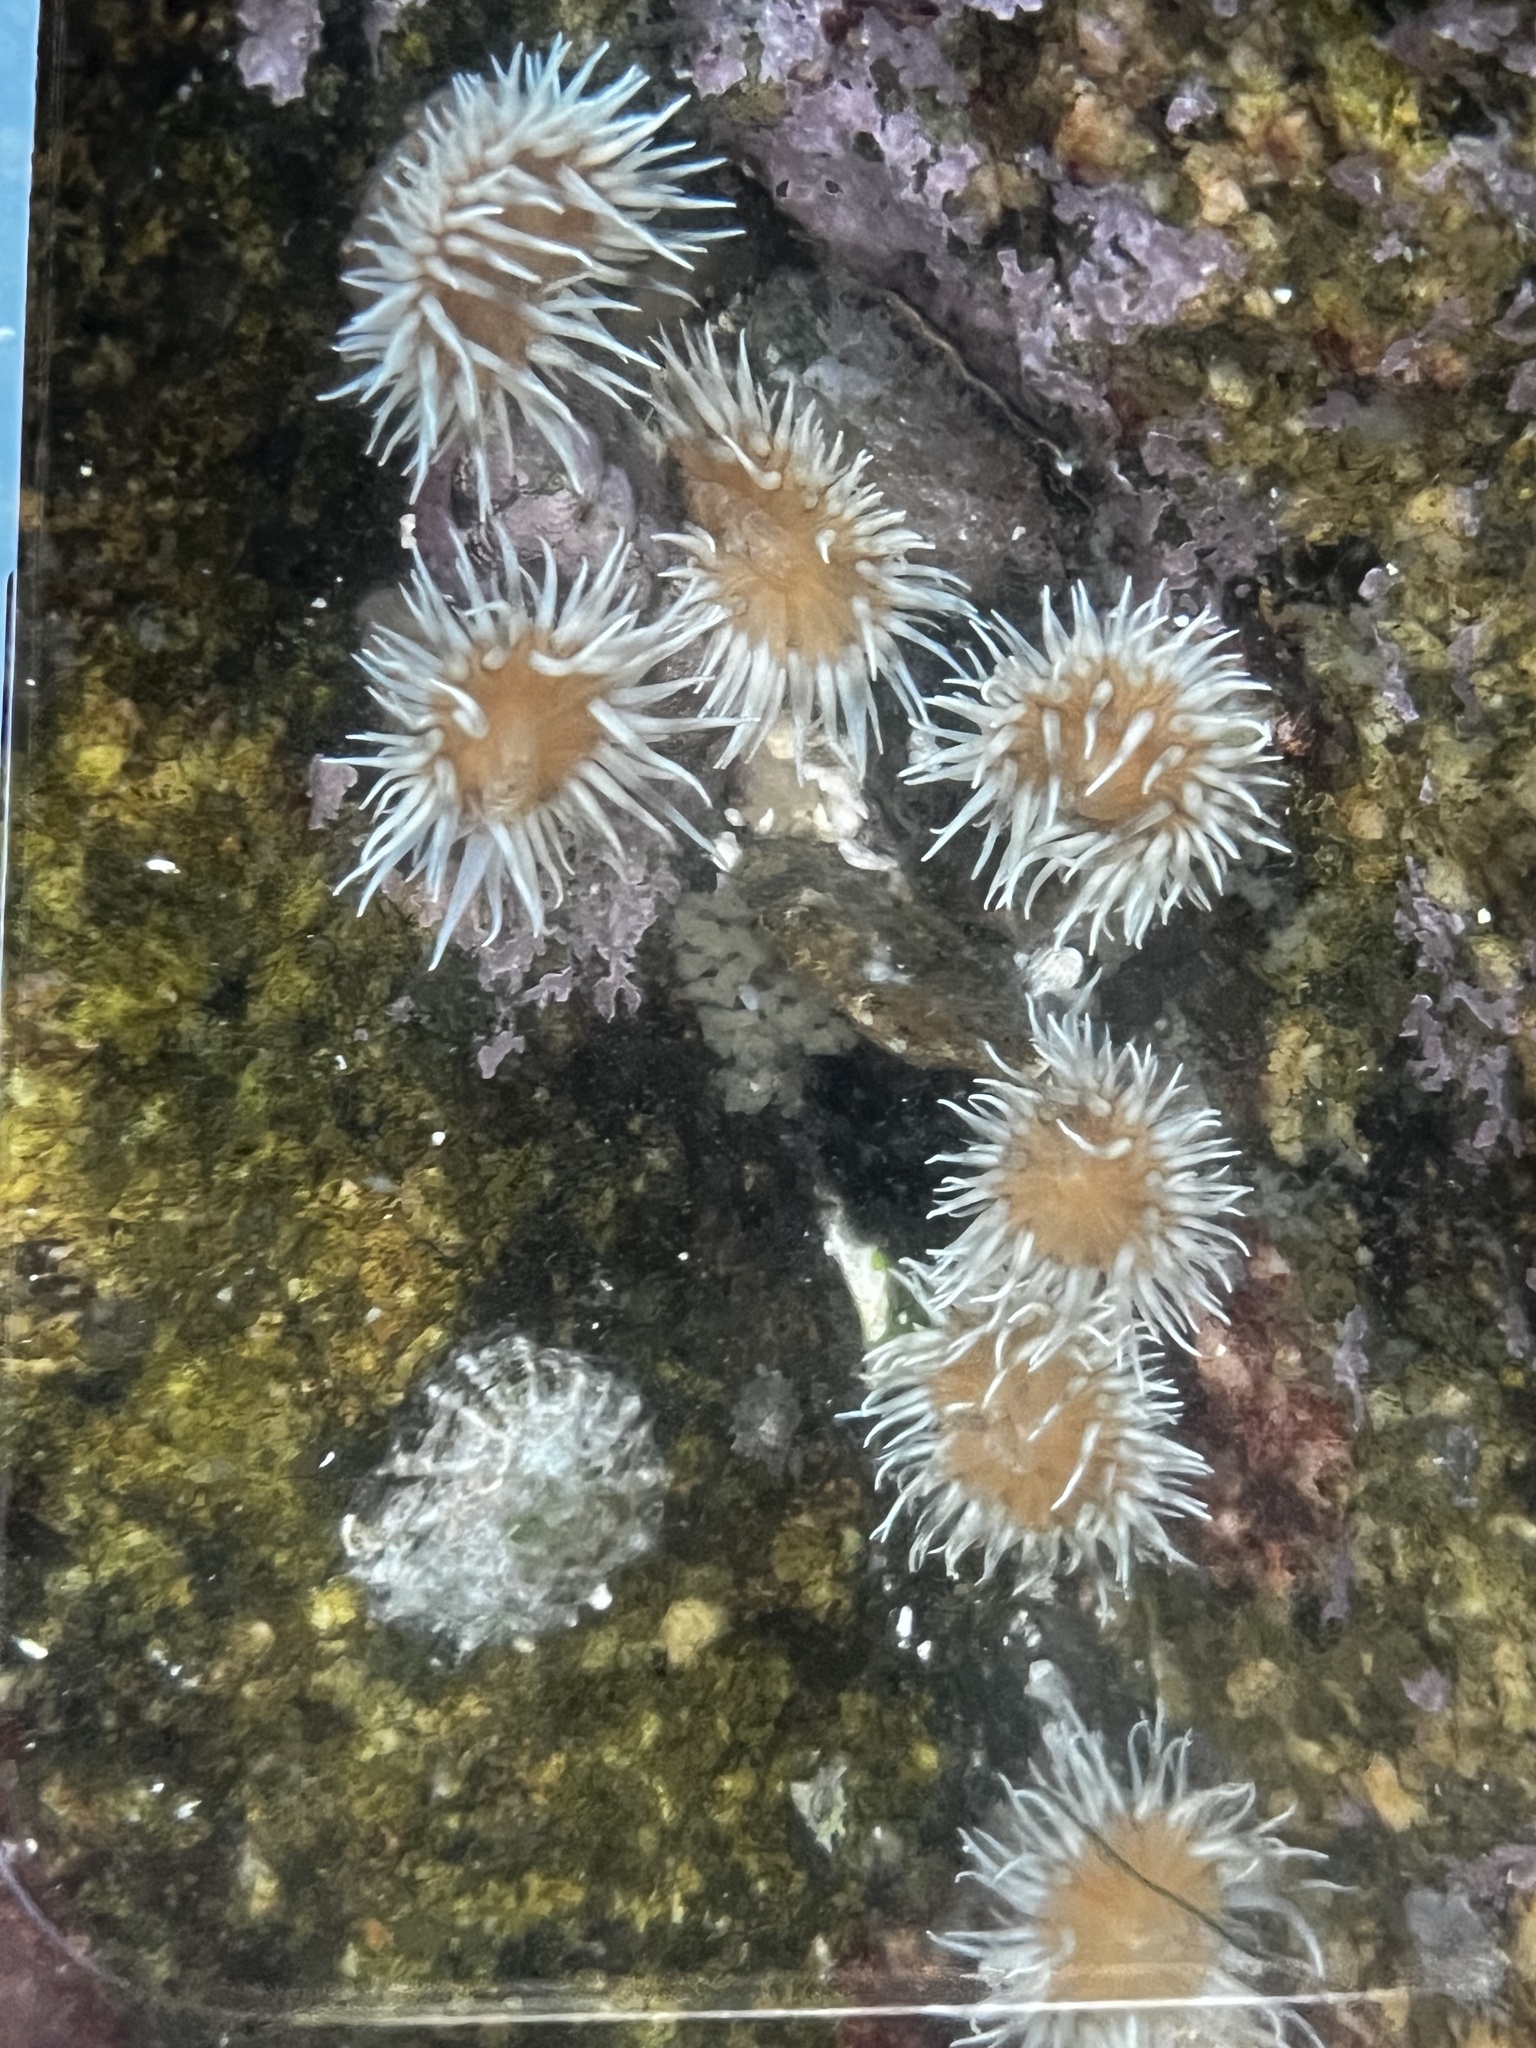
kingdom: Animalia
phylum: Cnidaria
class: Anthozoa
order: Actiniaria
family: Sagartiidae
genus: Anthothoe
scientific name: Anthothoe chilensis
